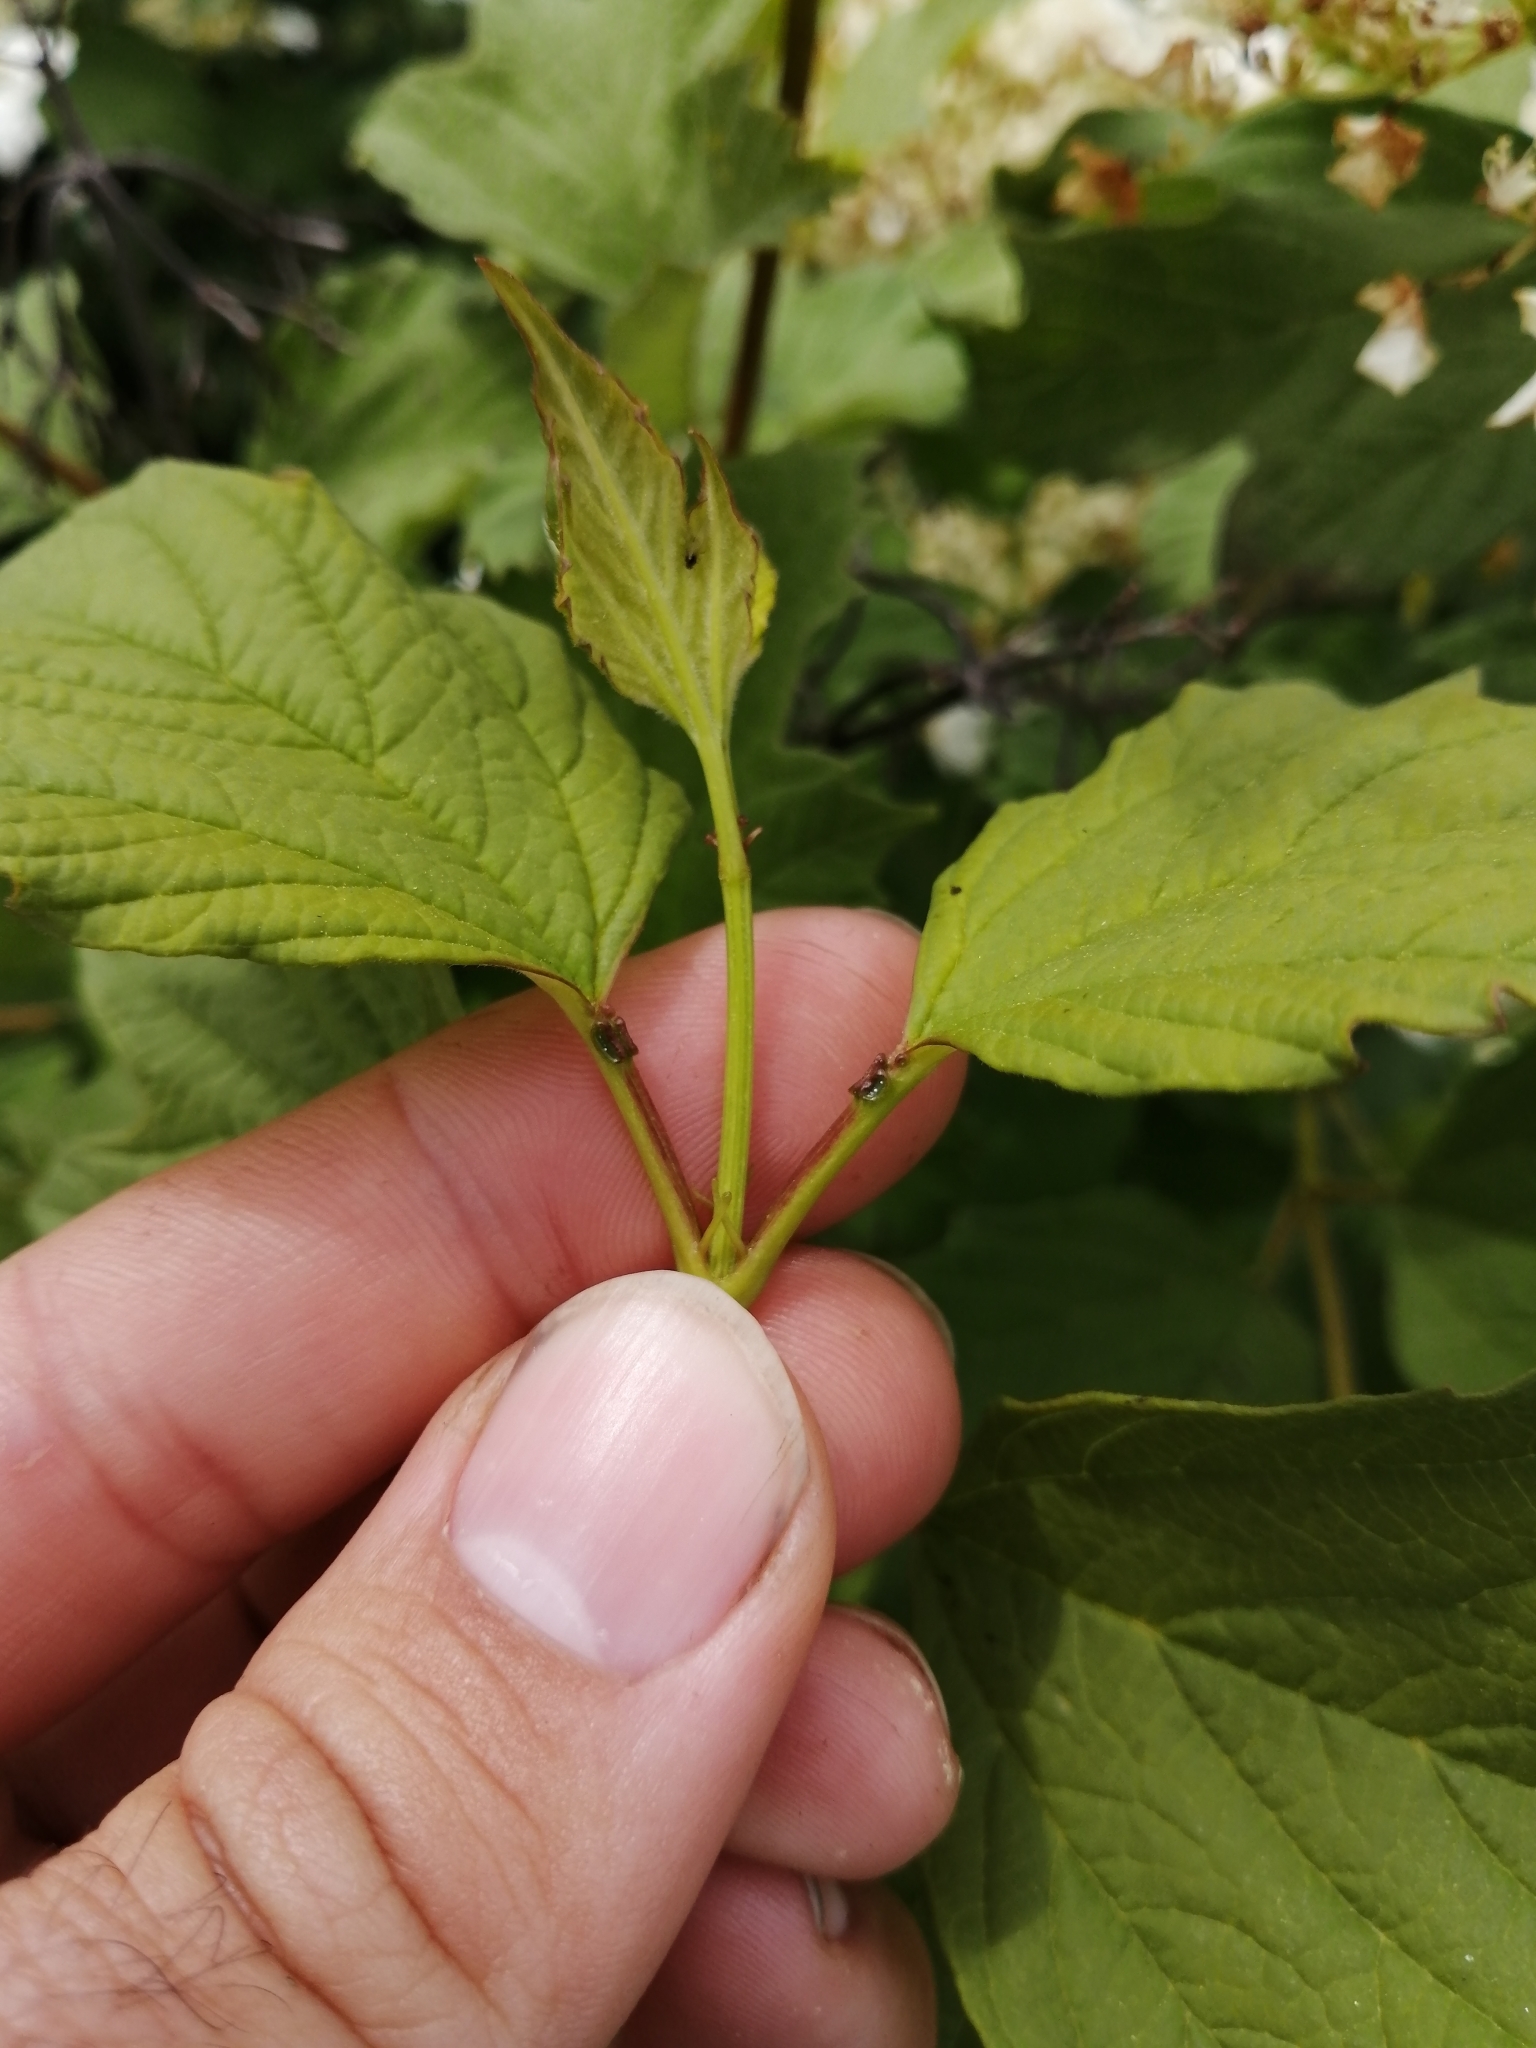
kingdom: Plantae
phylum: Tracheophyta
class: Magnoliopsida
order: Dipsacales
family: Viburnaceae
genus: Viburnum
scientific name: Viburnum opulus
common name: Guelder-rose
